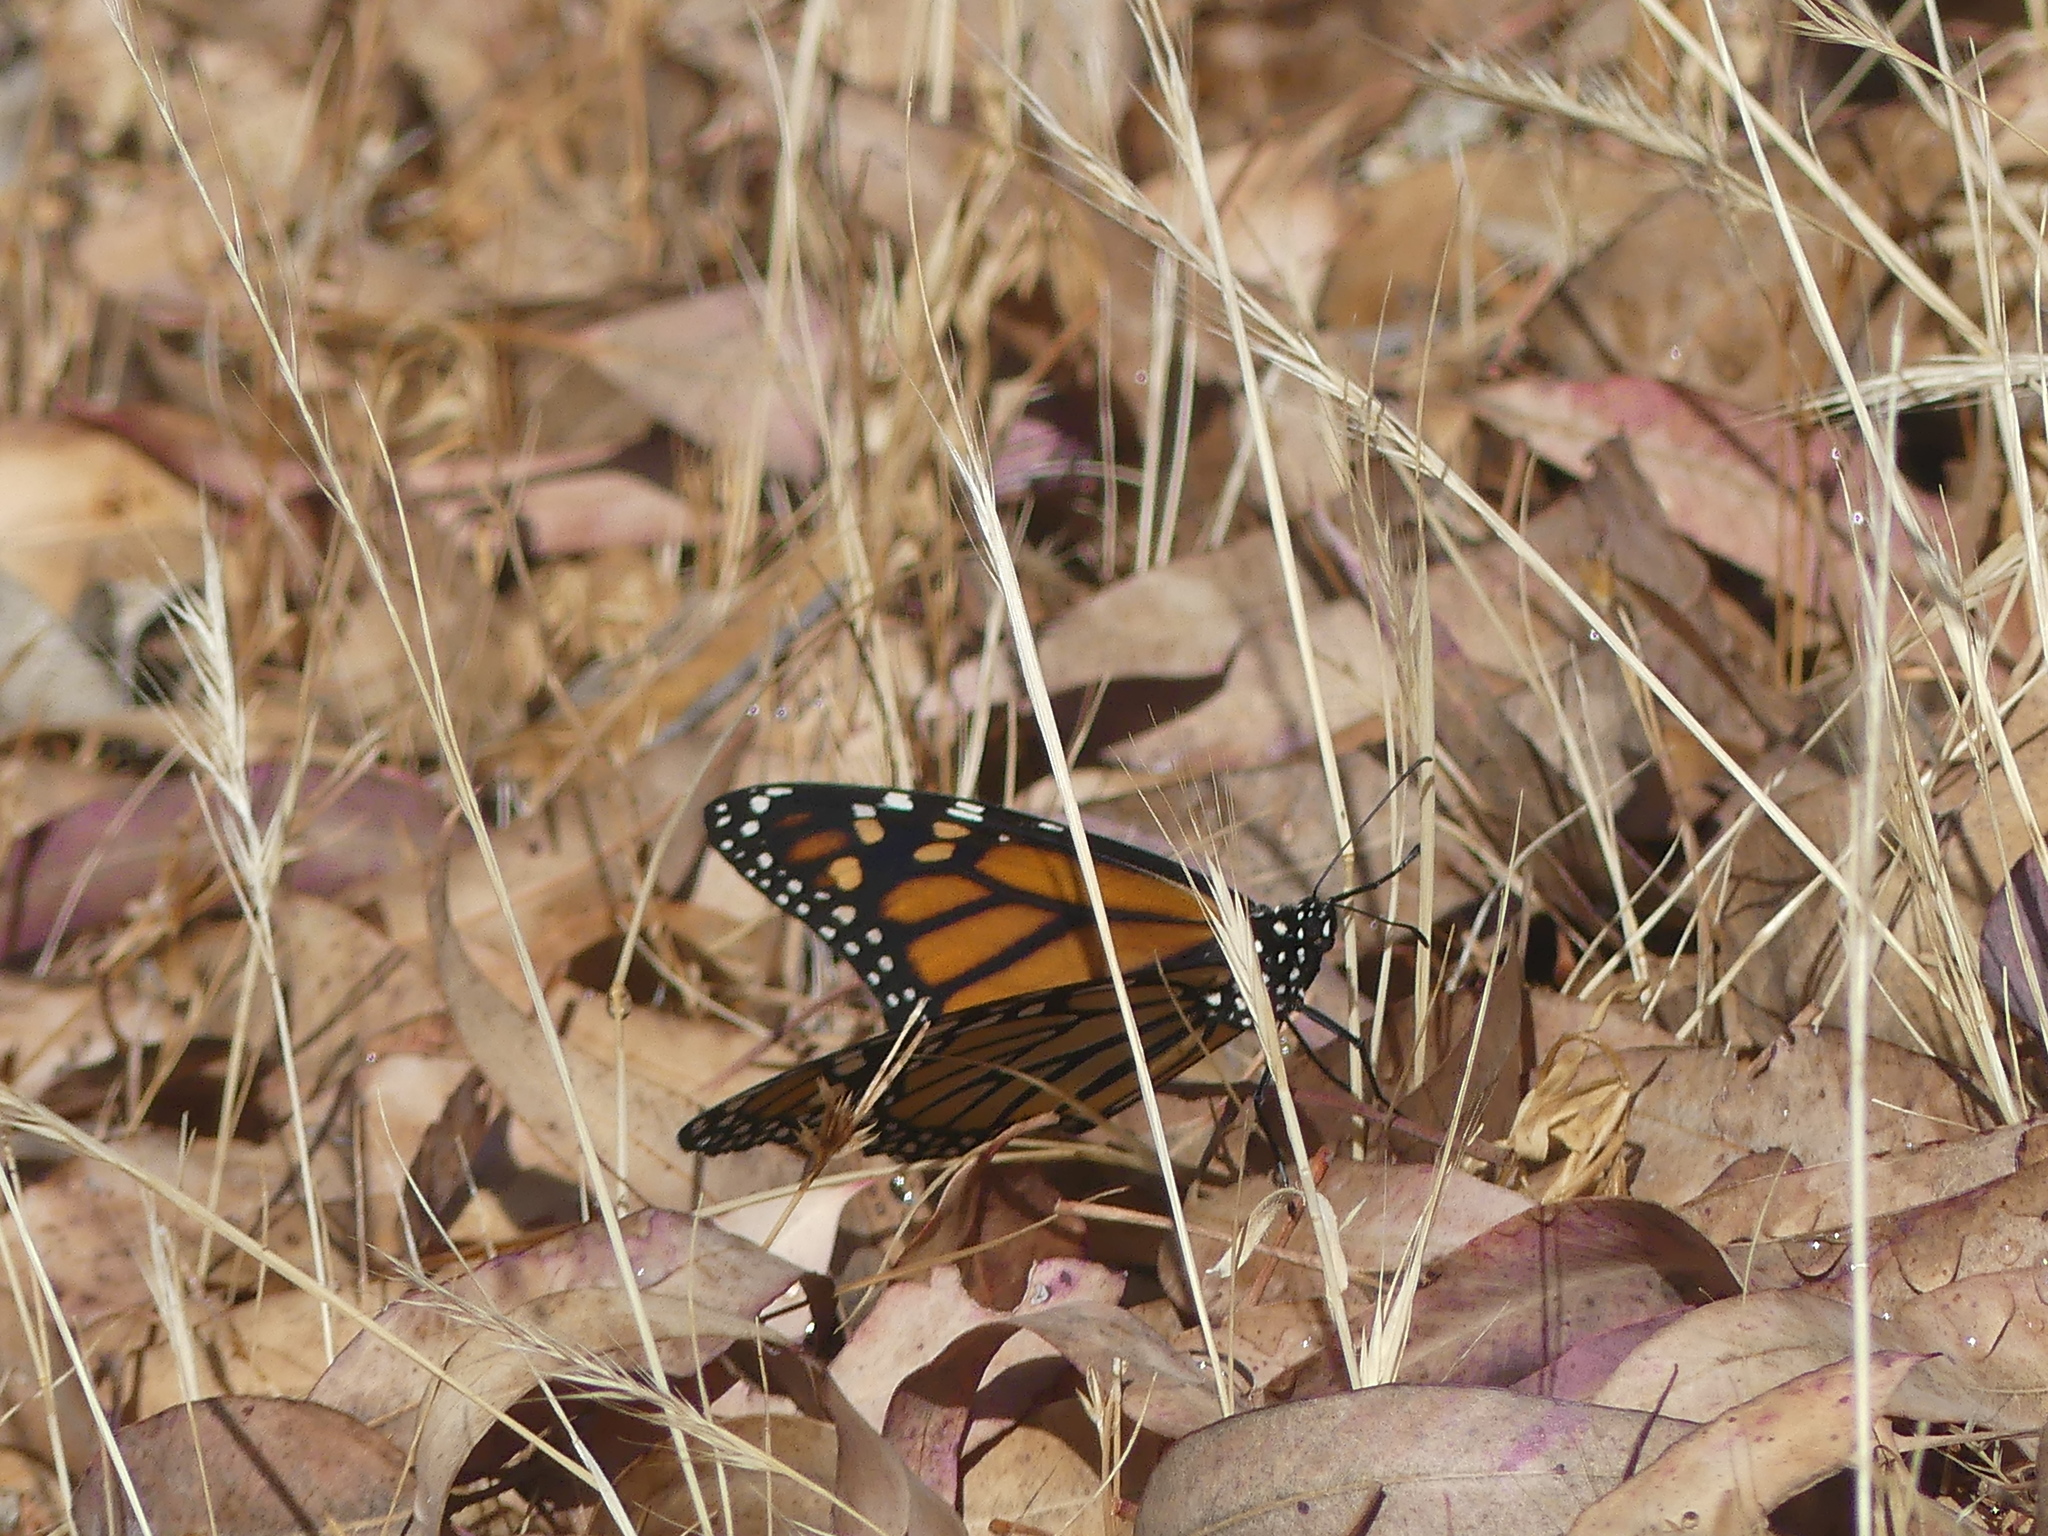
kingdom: Animalia
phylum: Arthropoda
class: Insecta
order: Lepidoptera
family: Nymphalidae
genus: Danaus
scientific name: Danaus plexippus
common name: Monarch
